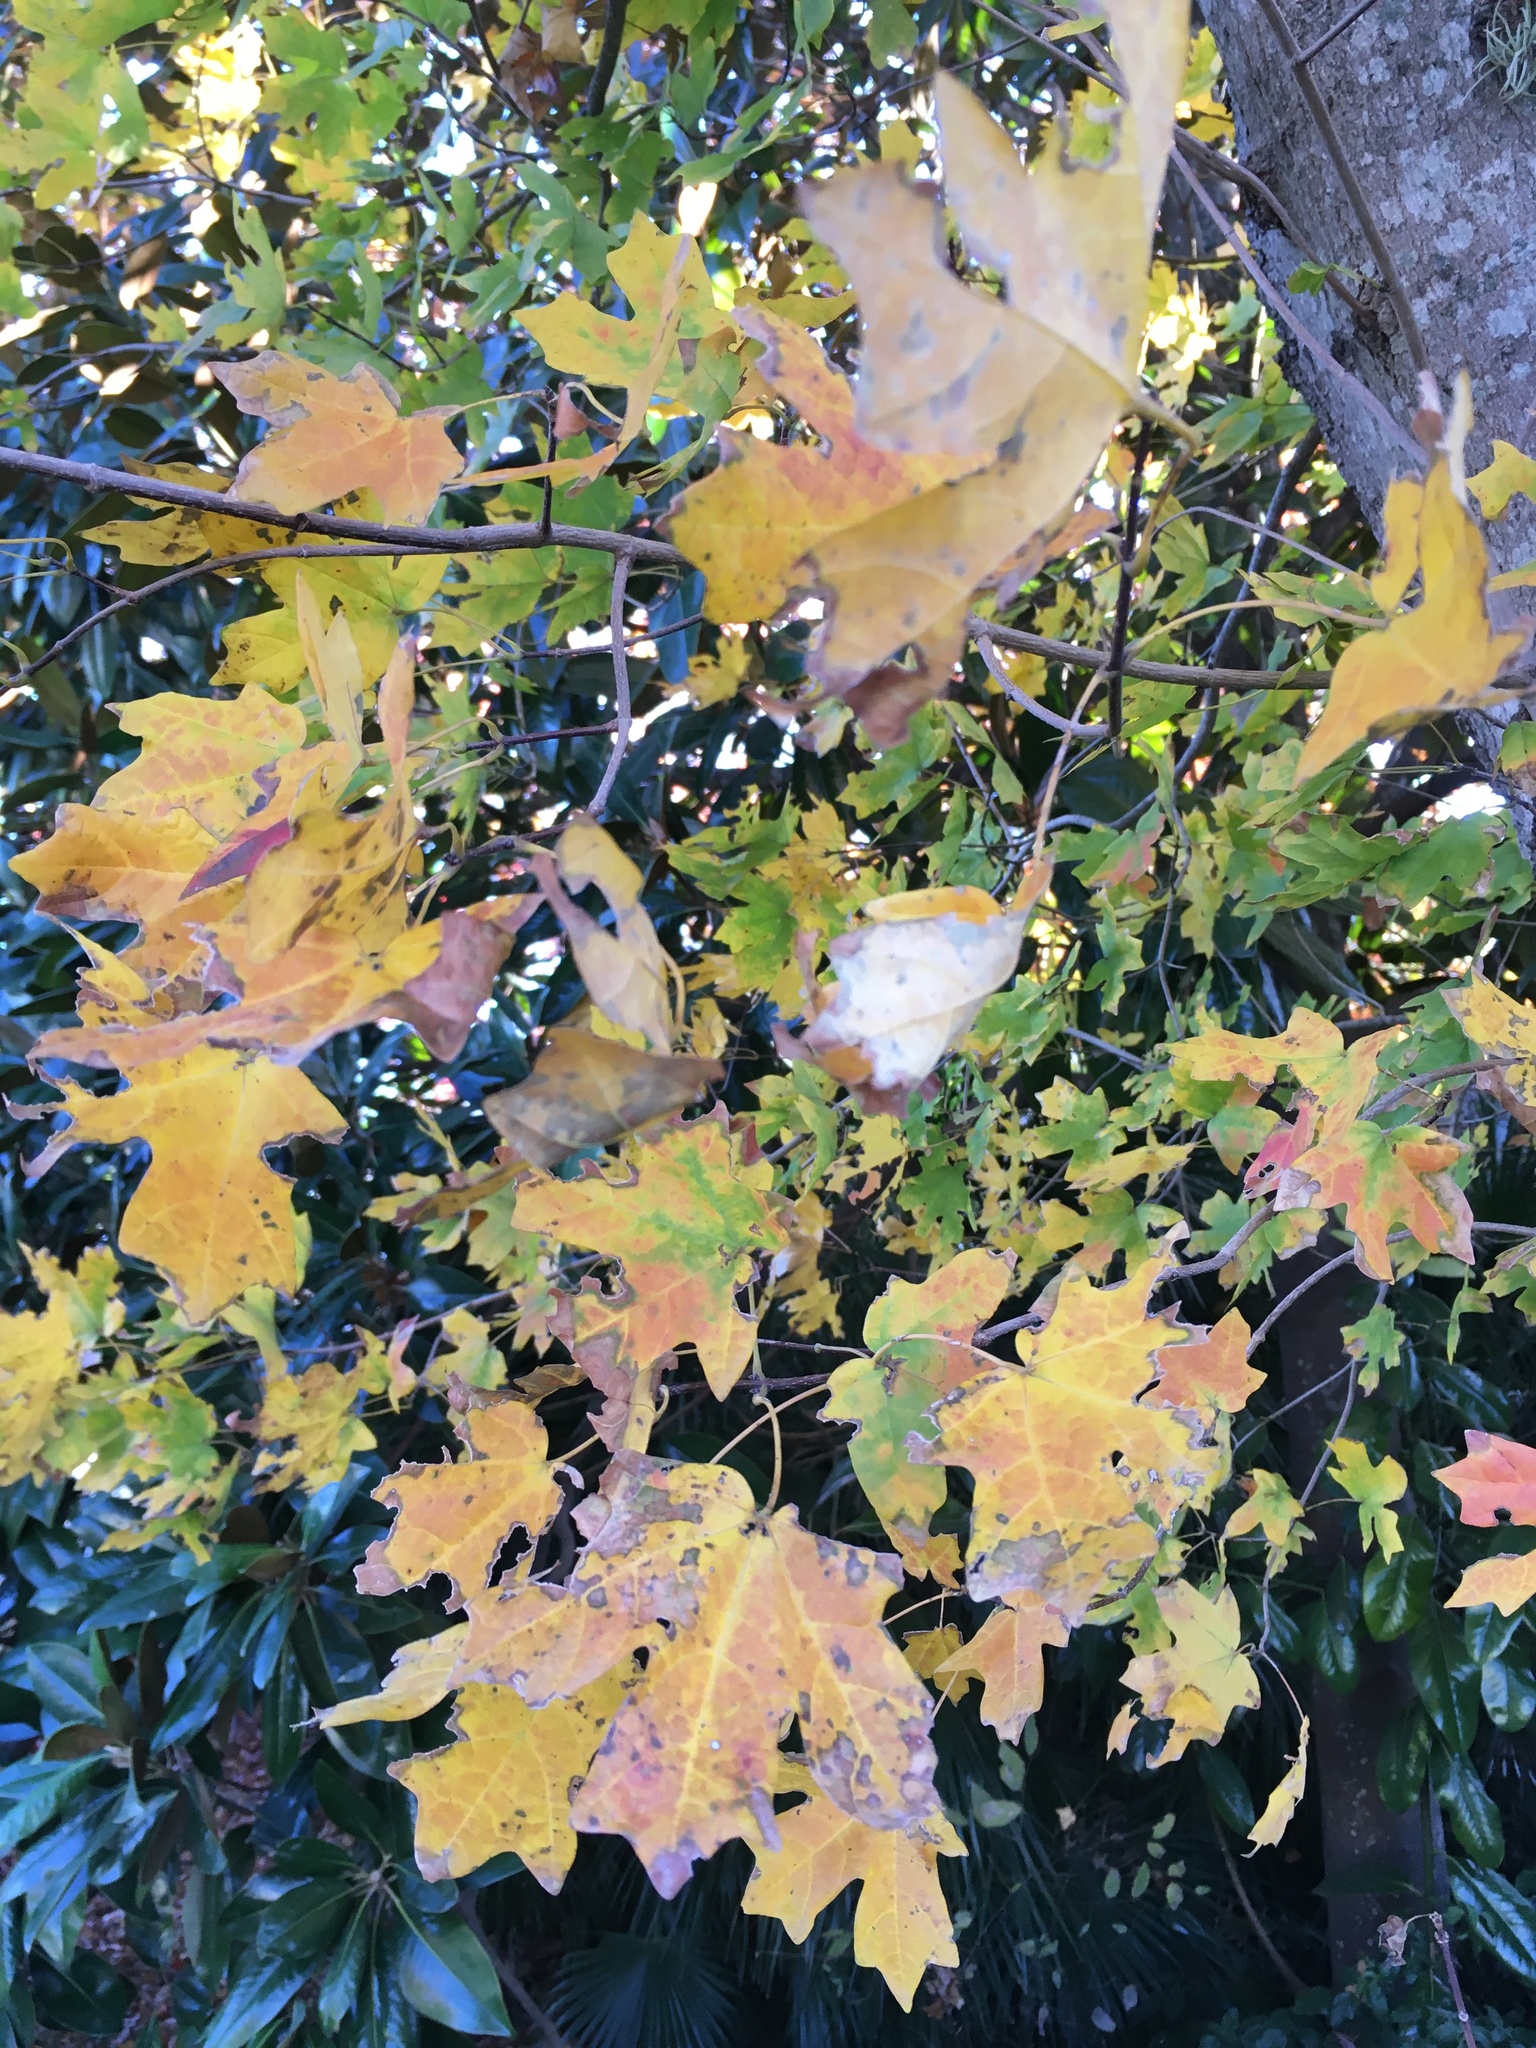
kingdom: Plantae
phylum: Tracheophyta
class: Magnoliopsida
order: Sapindales
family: Sapindaceae
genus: Acer
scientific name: Acer grandidentatum
